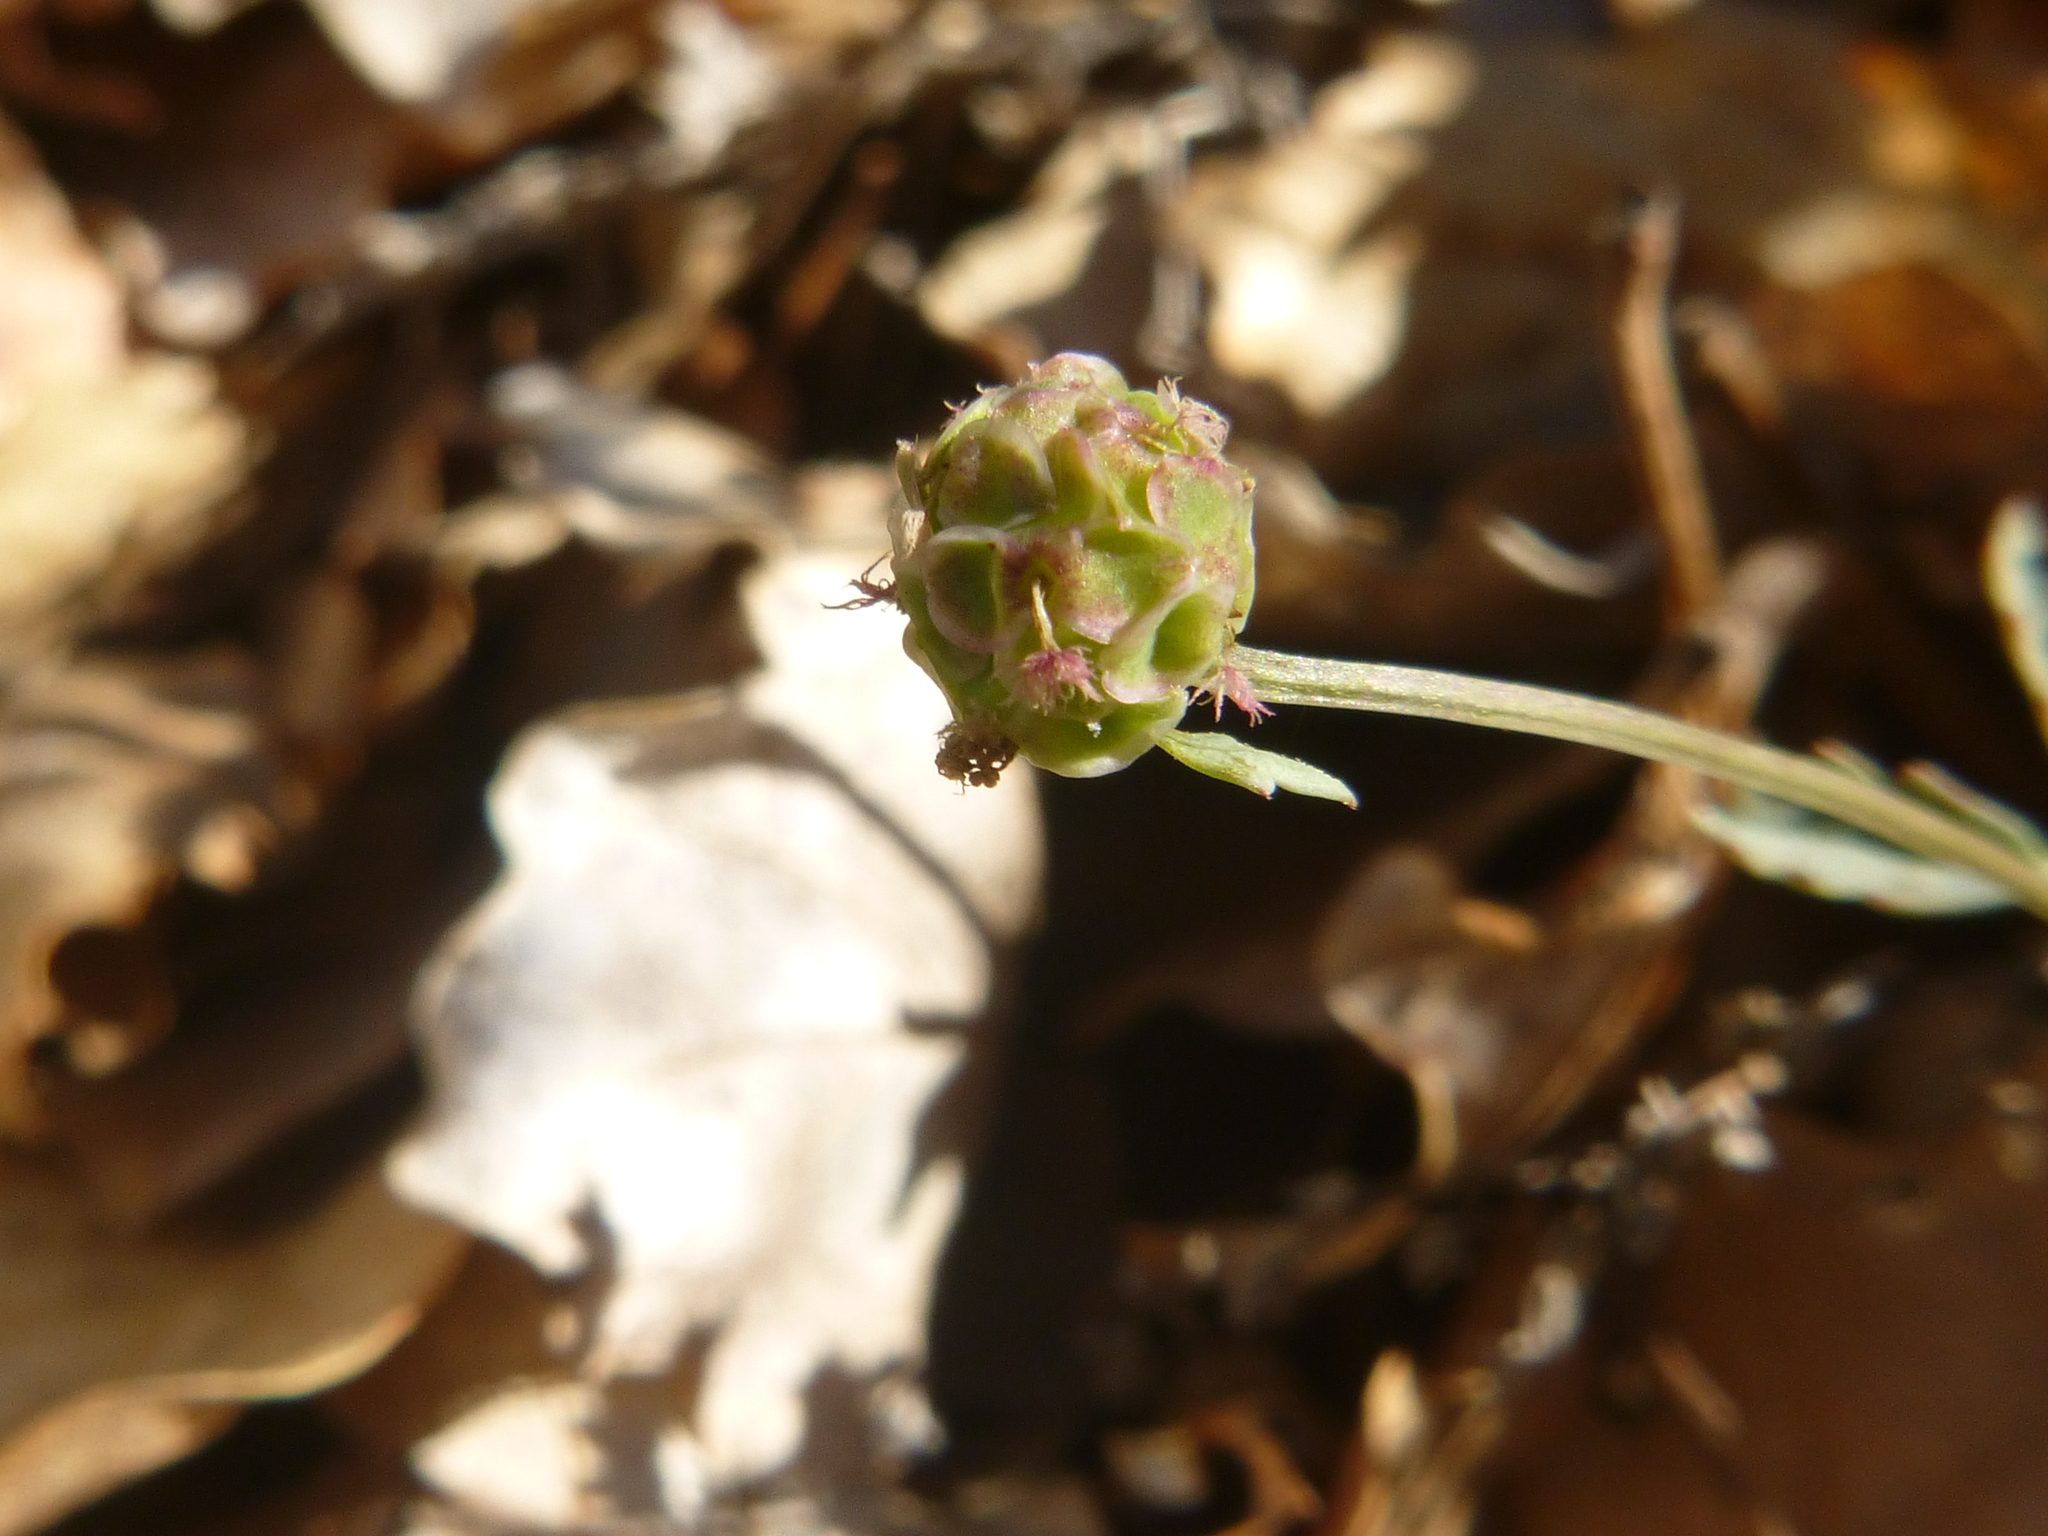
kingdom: Plantae
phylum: Tracheophyta
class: Magnoliopsida
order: Rosales
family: Rosaceae
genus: Poterium
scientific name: Poterium sanguisorba
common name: Salad burnet
